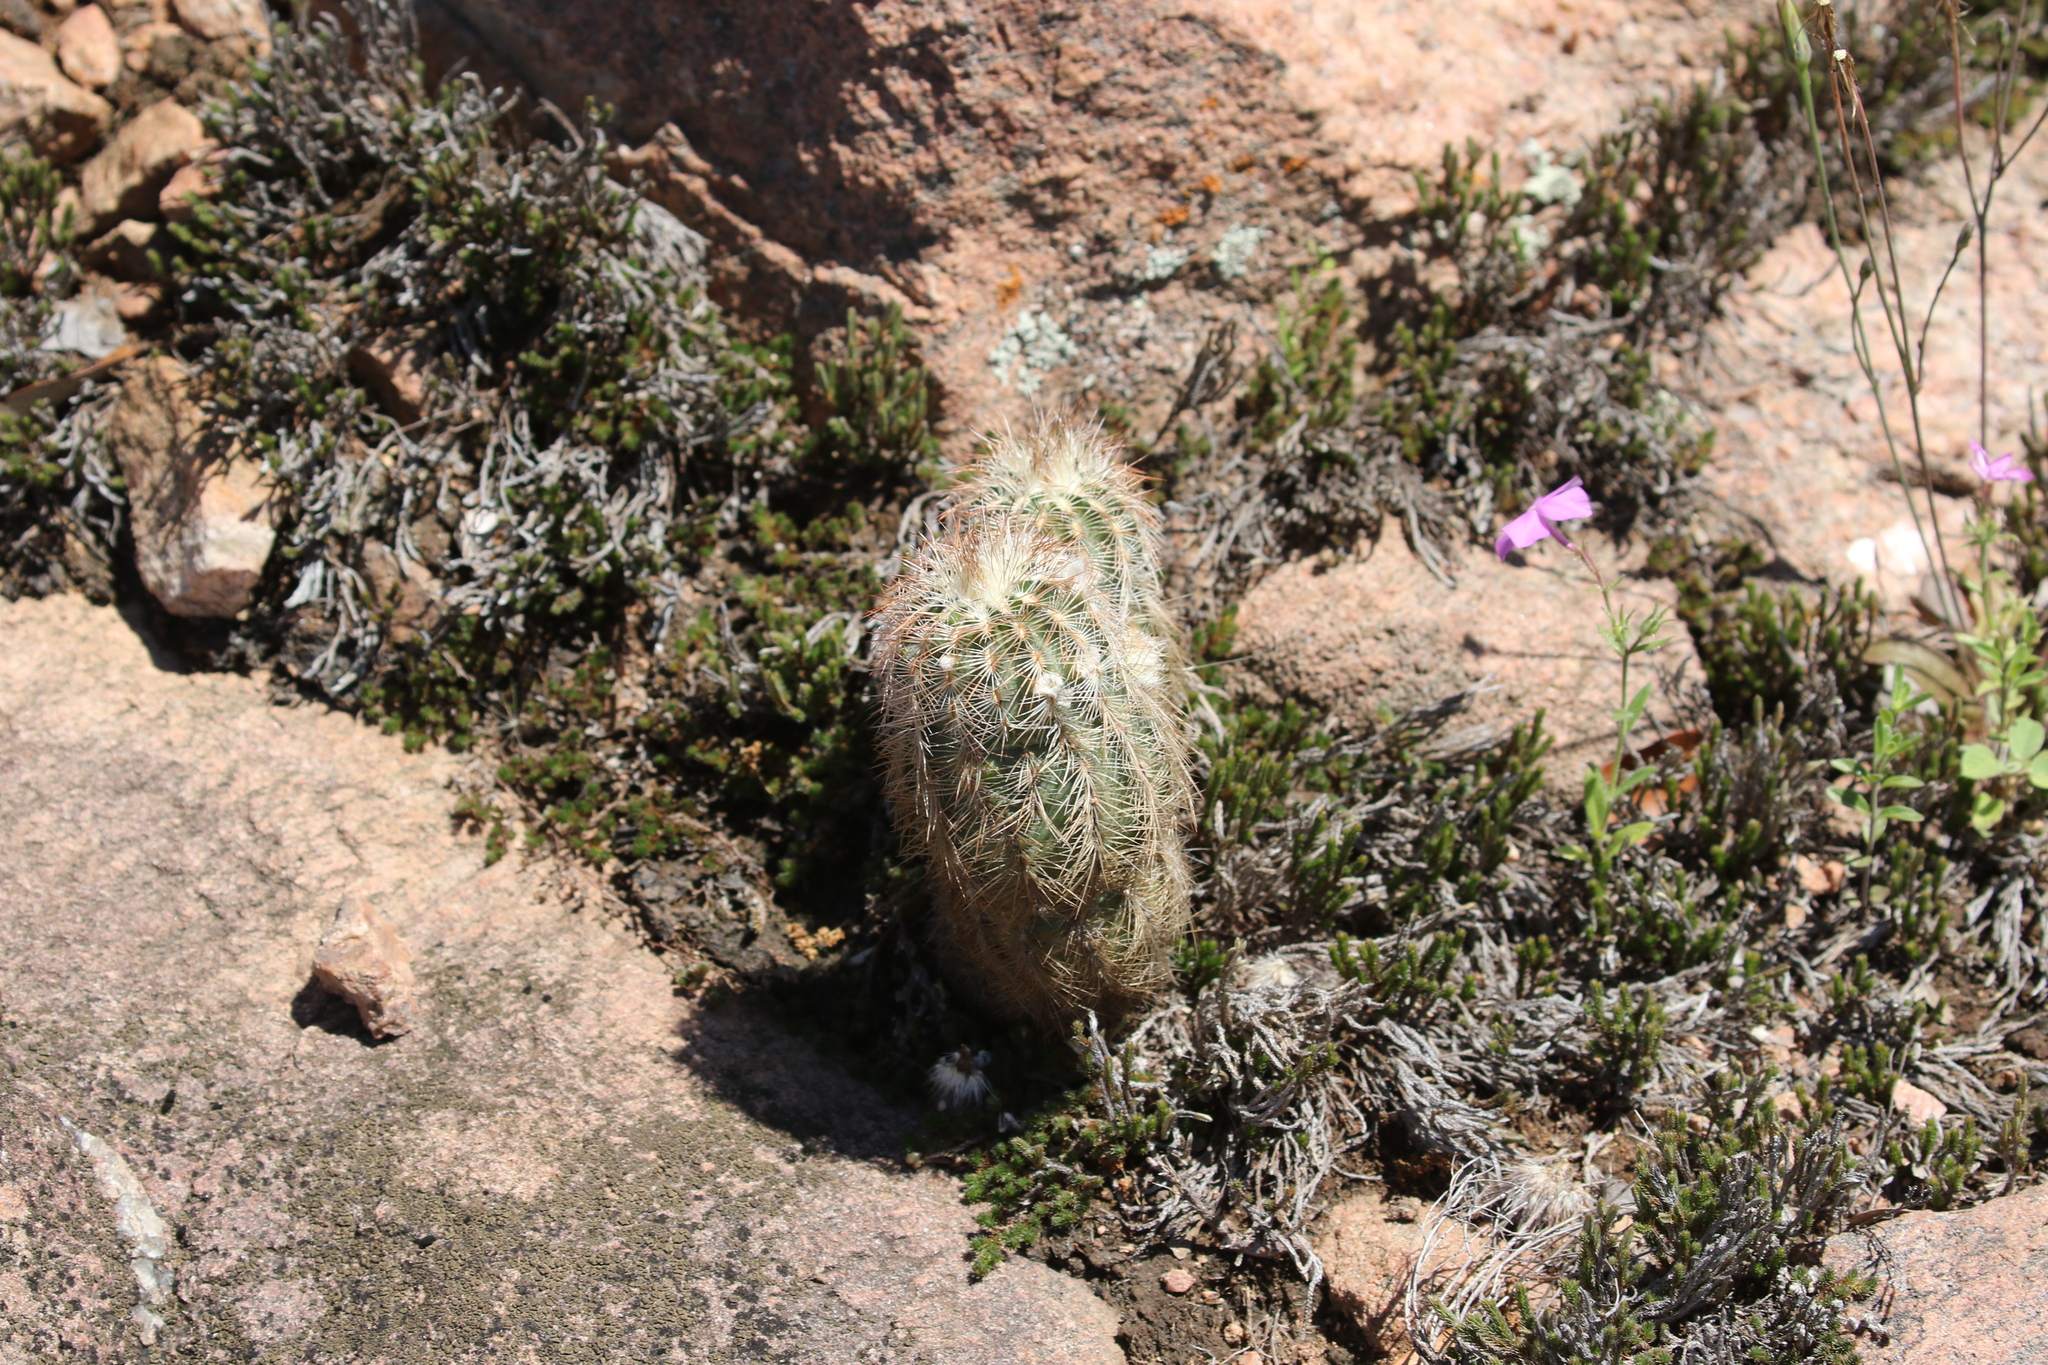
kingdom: Plantae
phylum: Tracheophyta
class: Magnoliopsida
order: Caryophyllales
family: Cactaceae
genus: Echinocereus
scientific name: Echinocereus reichenbachii
